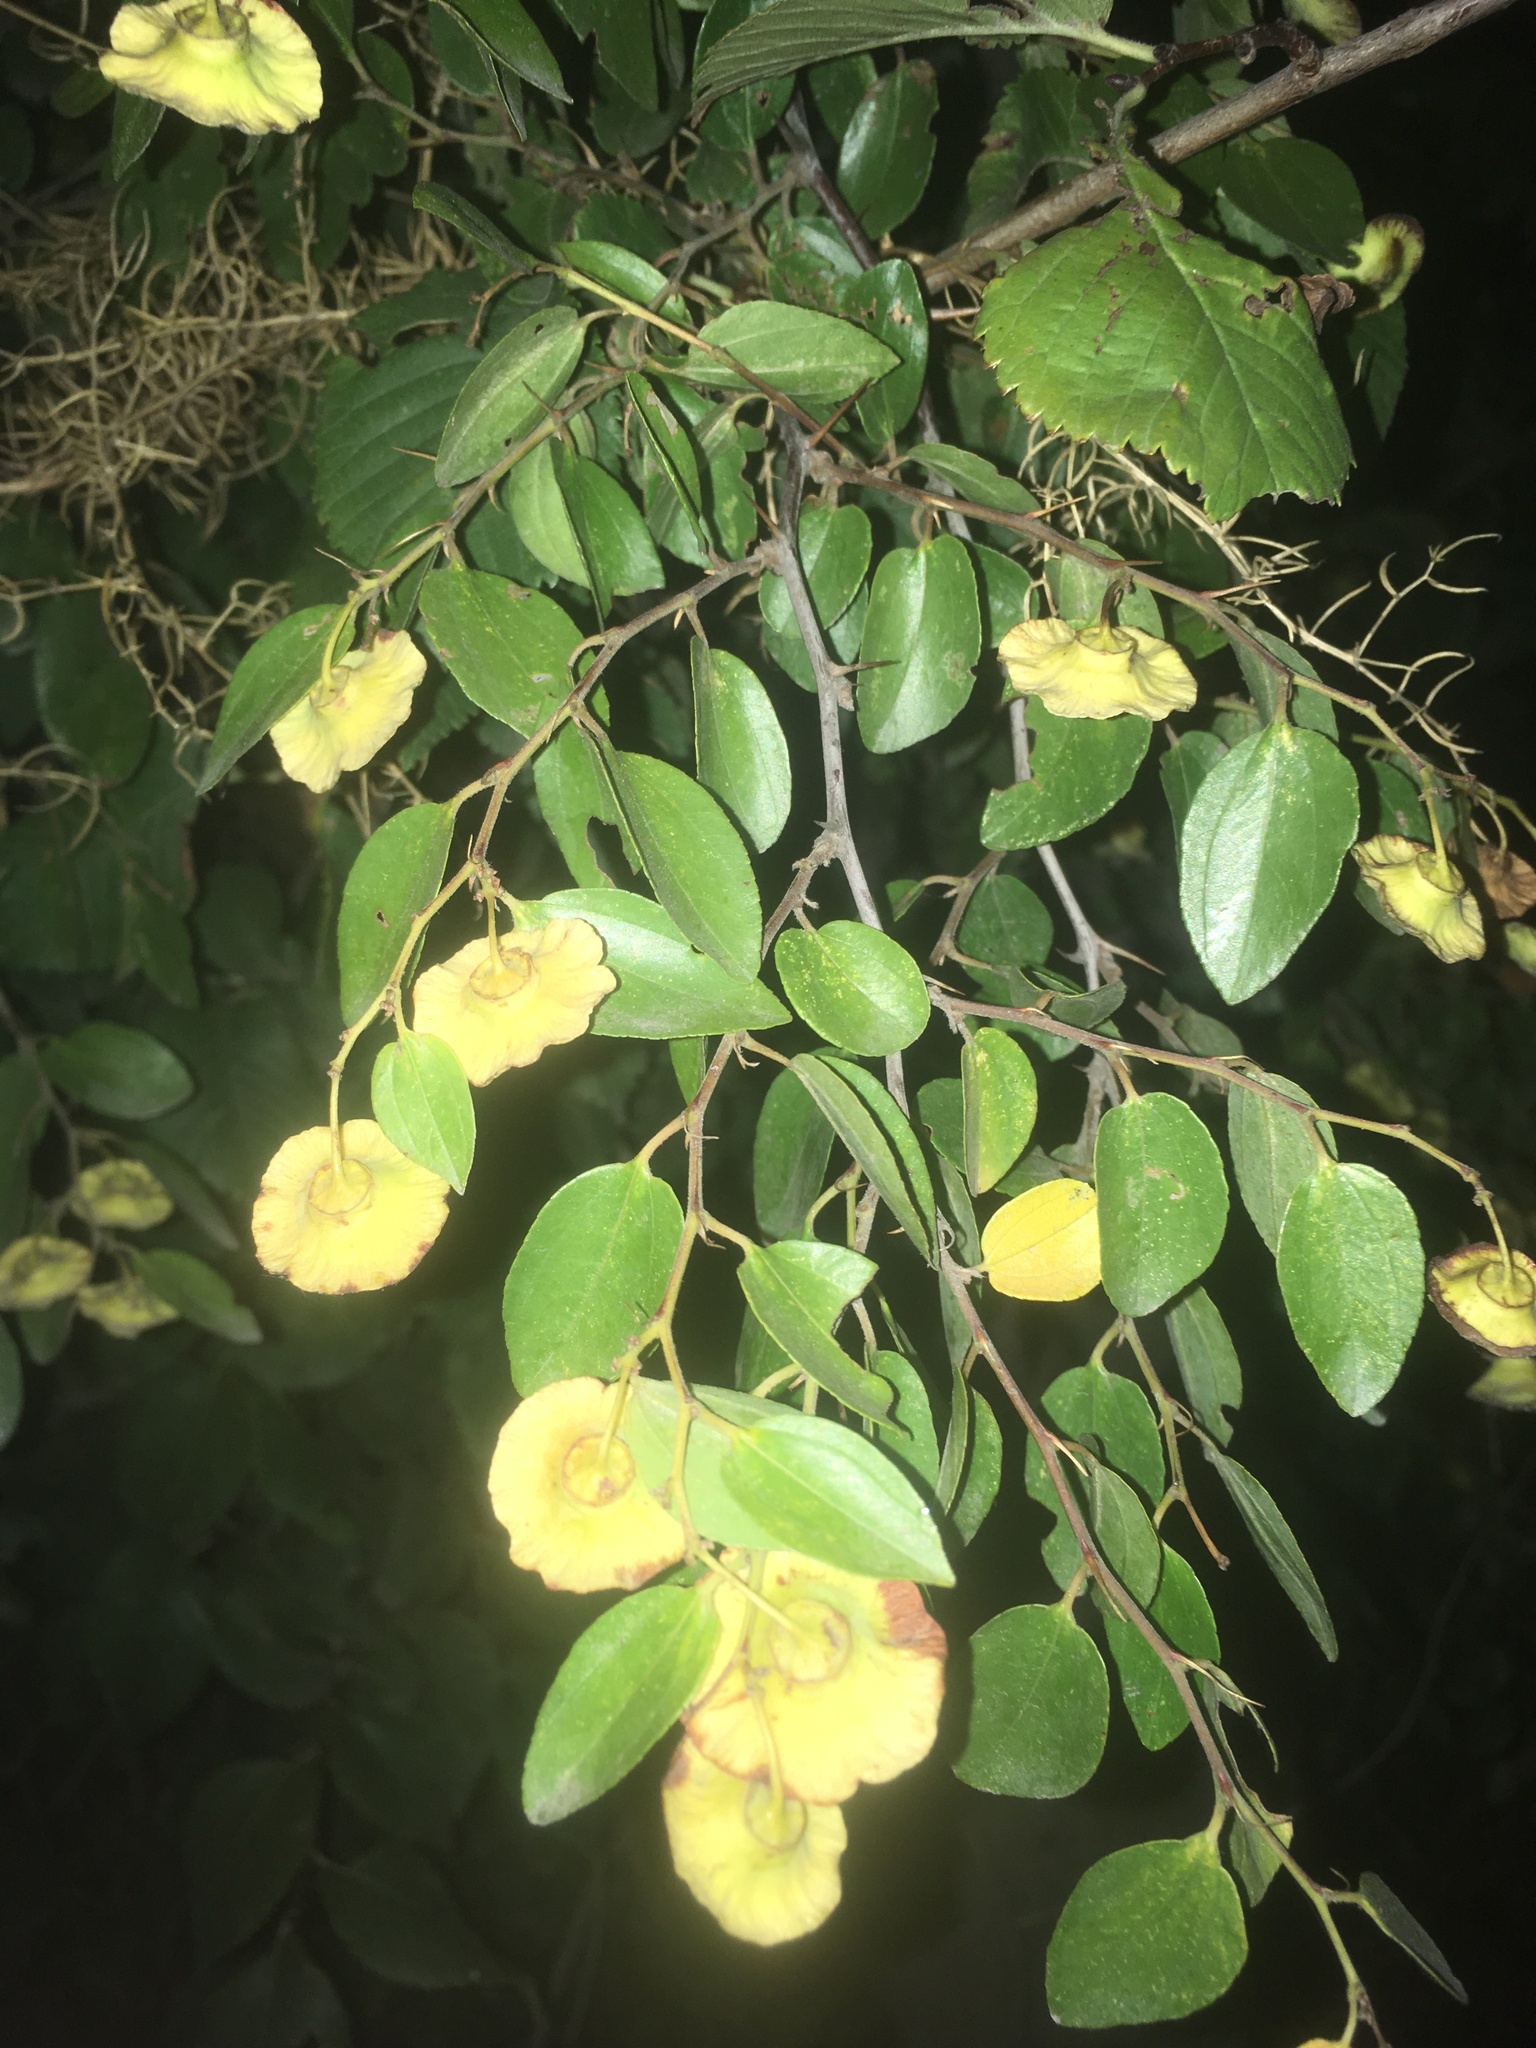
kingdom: Plantae
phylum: Tracheophyta
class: Magnoliopsida
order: Rosales
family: Rhamnaceae
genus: Paliurus
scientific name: Paliurus spina-christi
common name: Jeruselem thorn
